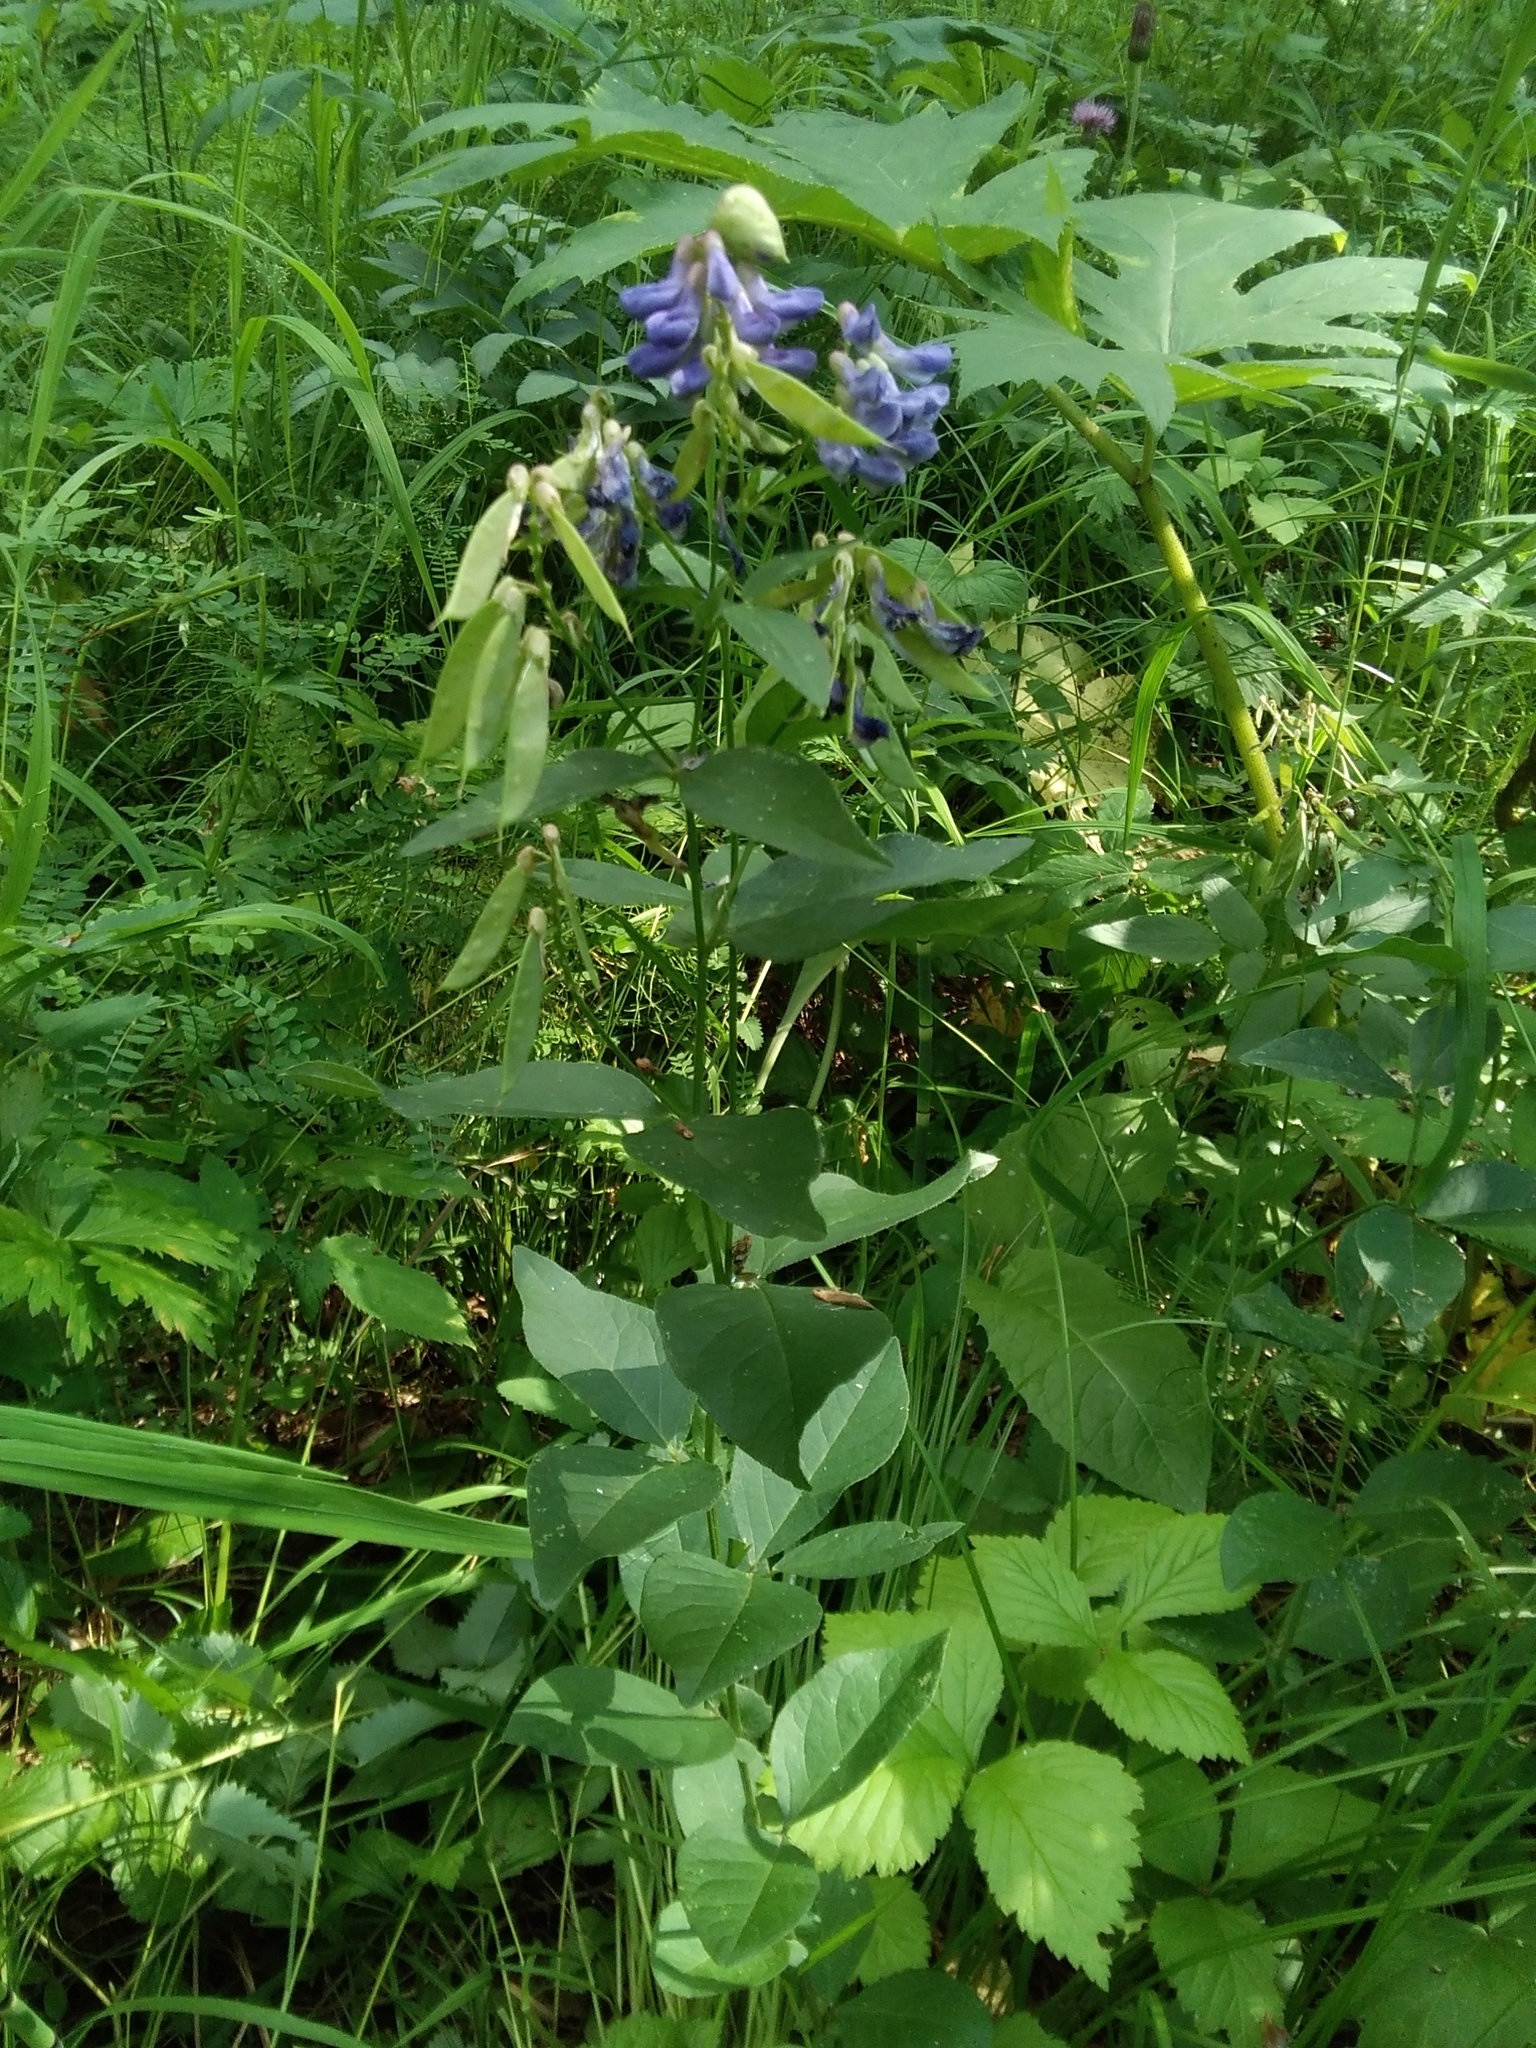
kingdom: Plantae
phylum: Tracheophyta
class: Magnoliopsida
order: Fabales
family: Fabaceae
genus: Vicia
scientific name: Vicia unijuga
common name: Two-leaf vetch
